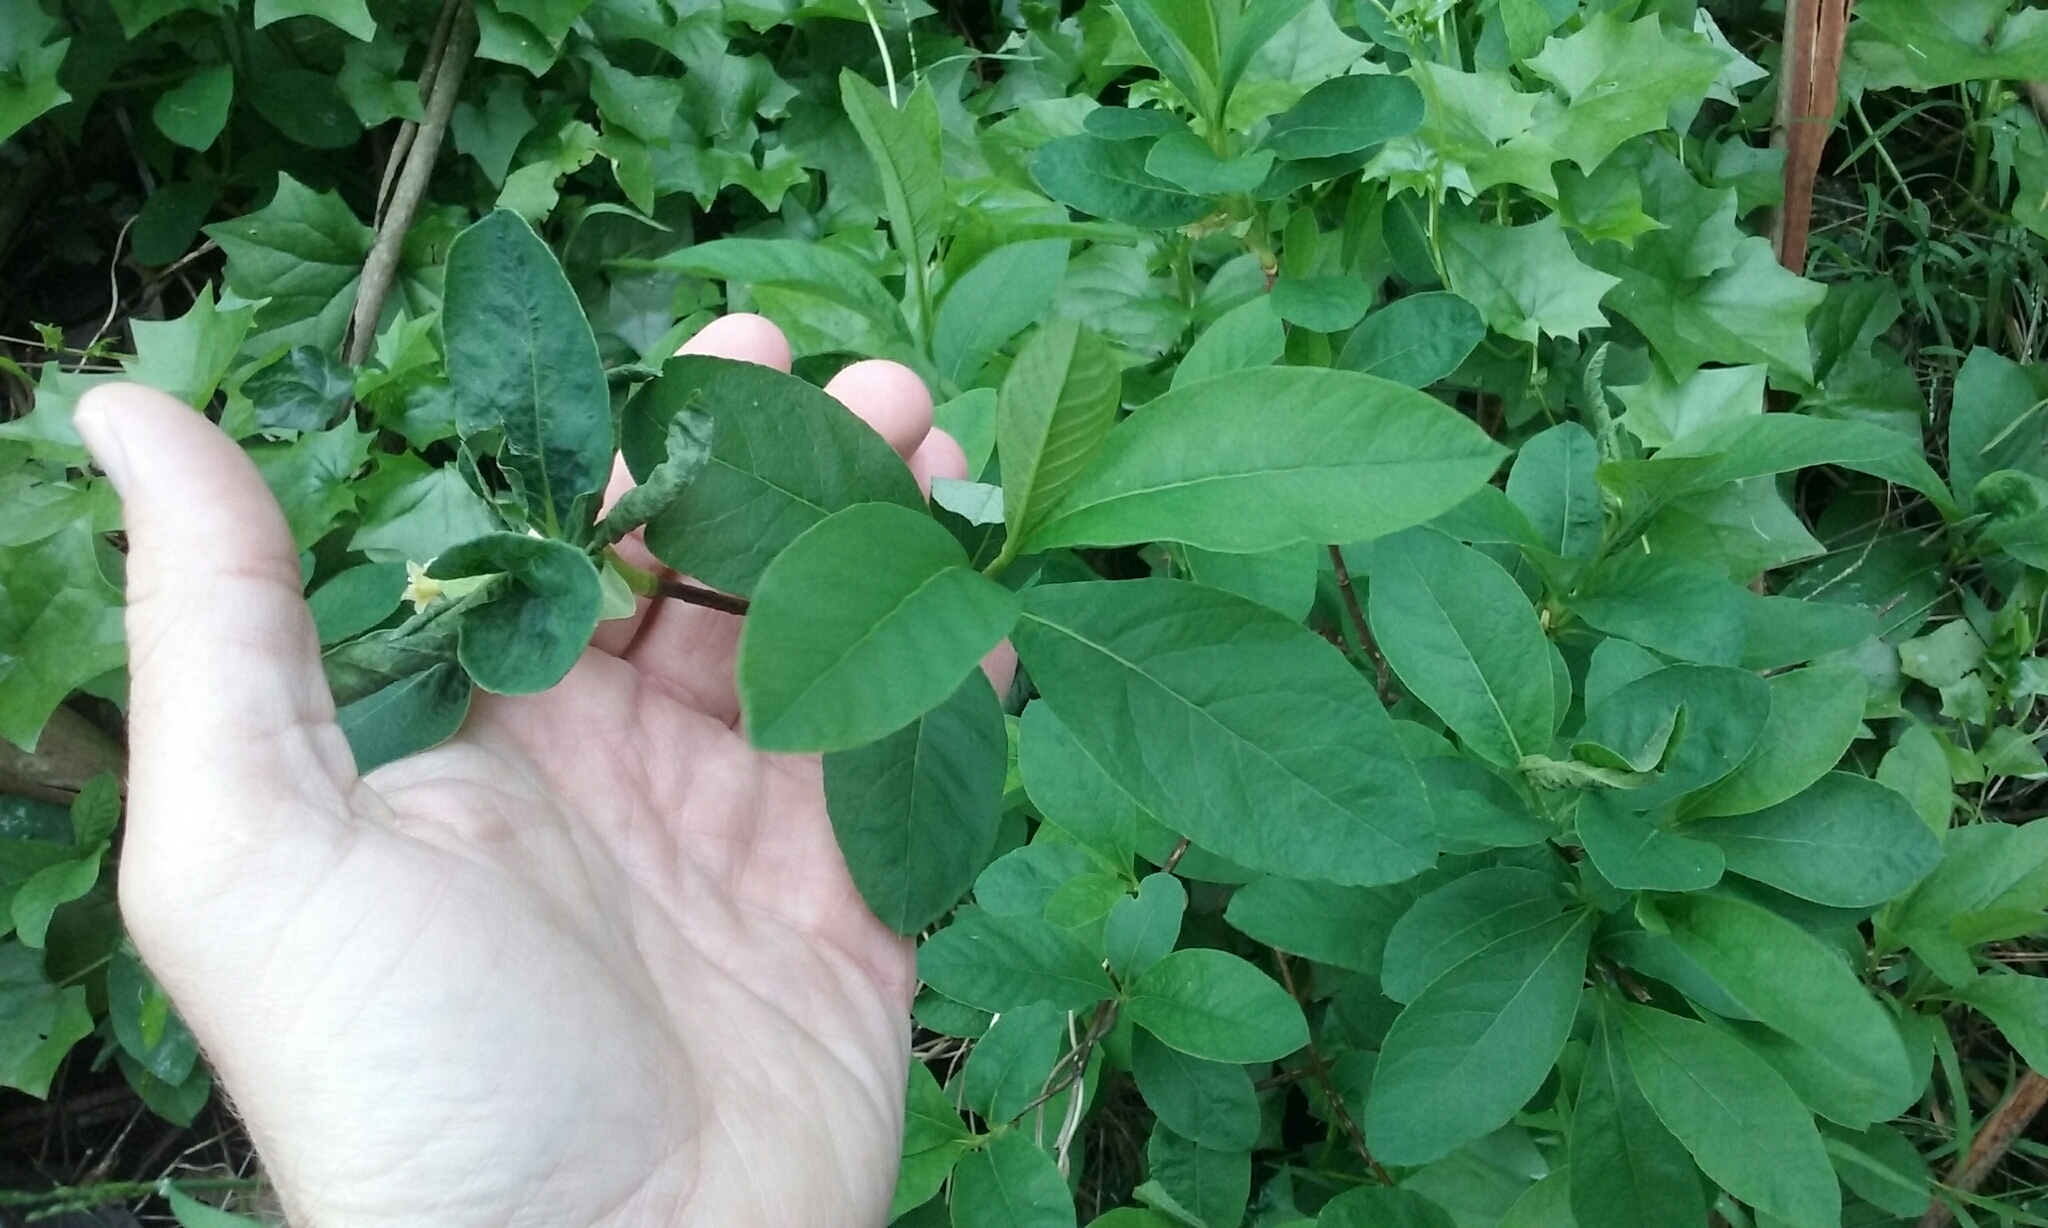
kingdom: Plantae
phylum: Tracheophyta
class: Magnoliopsida
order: Rosales
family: Rosaceae
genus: Oemleria
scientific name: Oemleria cerasiformis
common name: Osoberry
